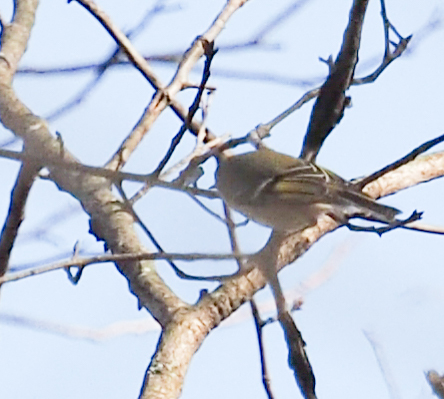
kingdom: Animalia
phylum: Chordata
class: Aves
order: Passeriformes
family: Regulidae
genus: Regulus
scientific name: Regulus calendula
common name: Ruby-crowned kinglet
